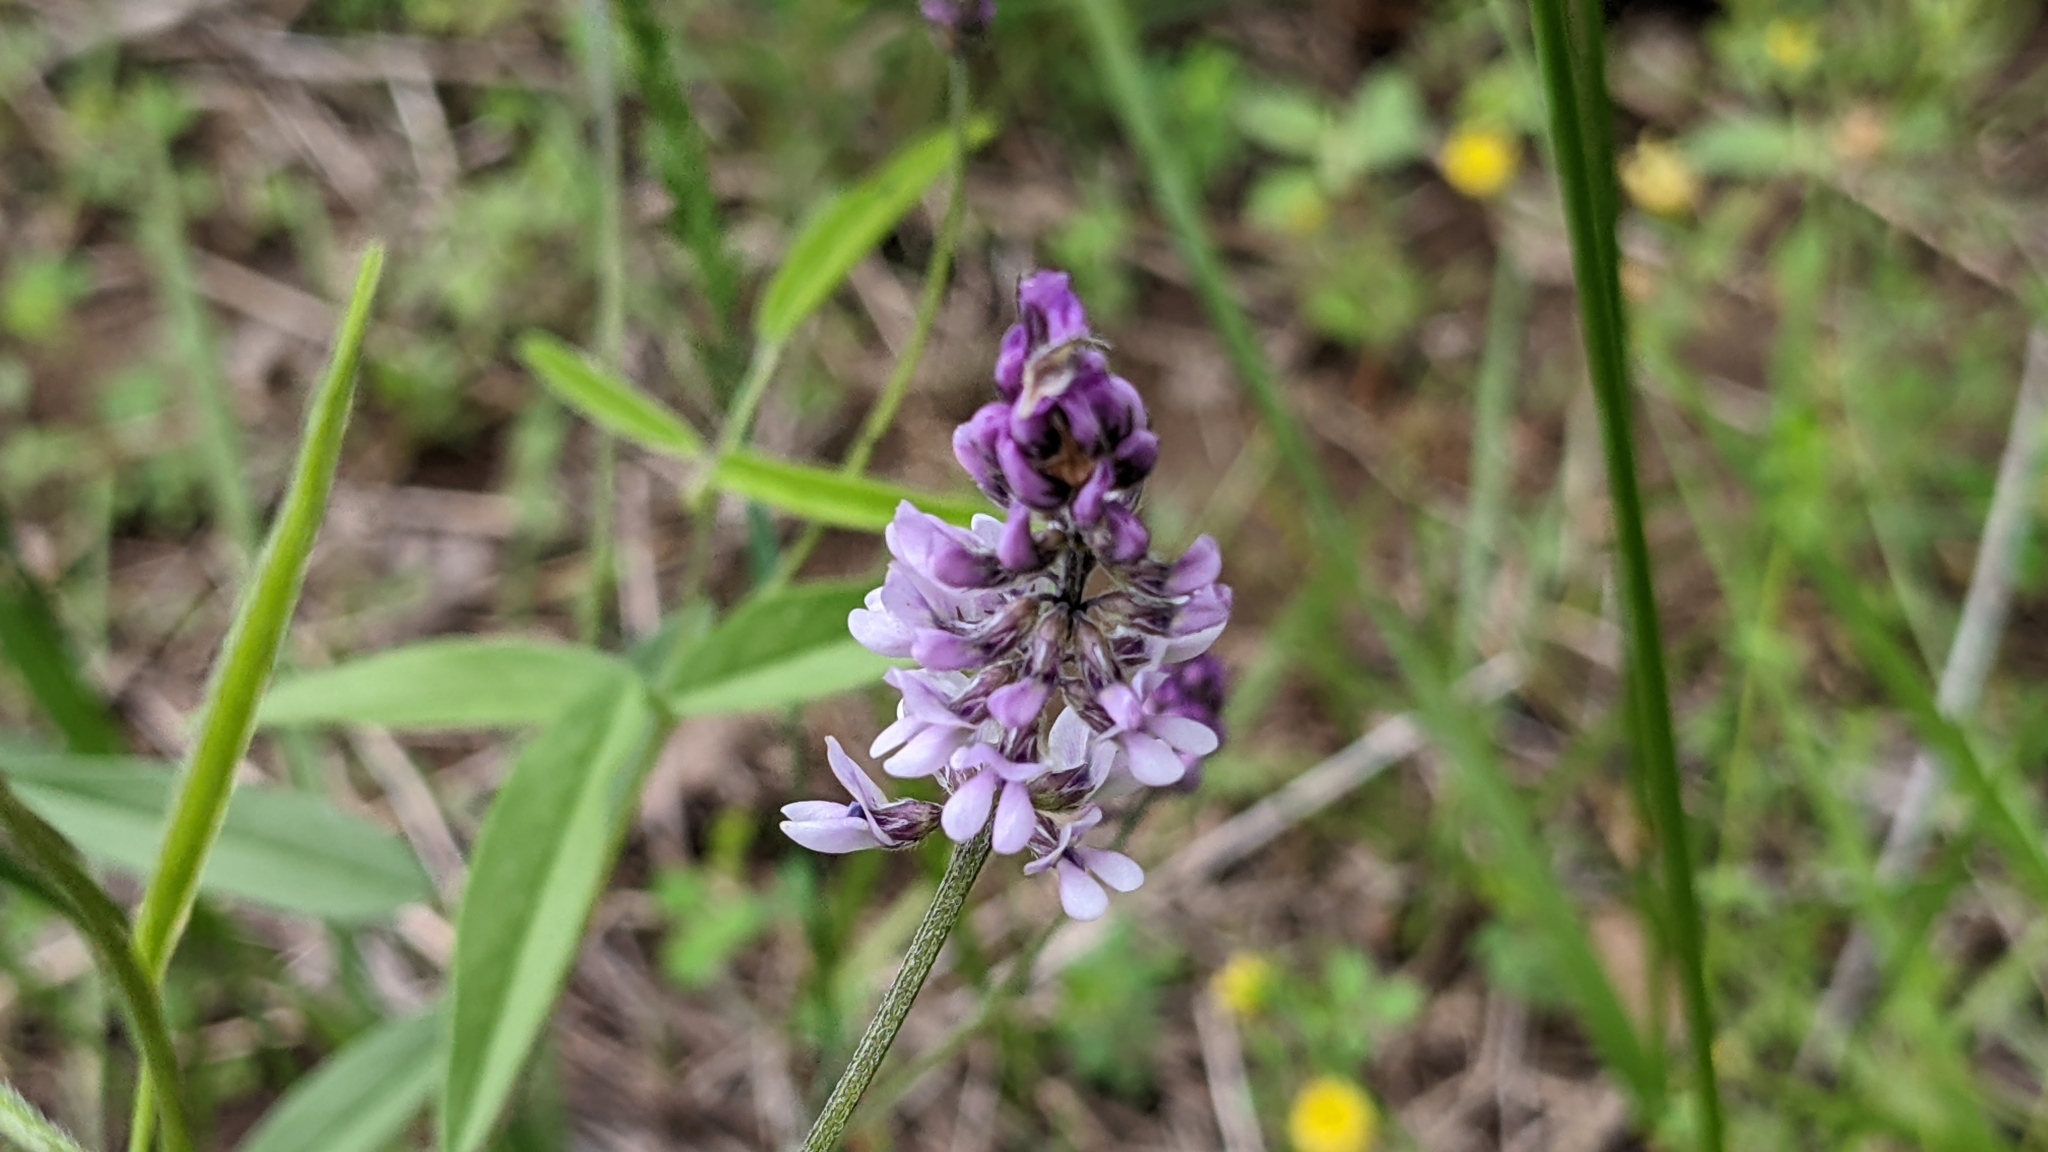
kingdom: Plantae
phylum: Tracheophyta
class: Magnoliopsida
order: Fabales
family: Fabaceae
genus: Orbexilum
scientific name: Orbexilum pedunculatum
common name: Sampson's snakeroot
